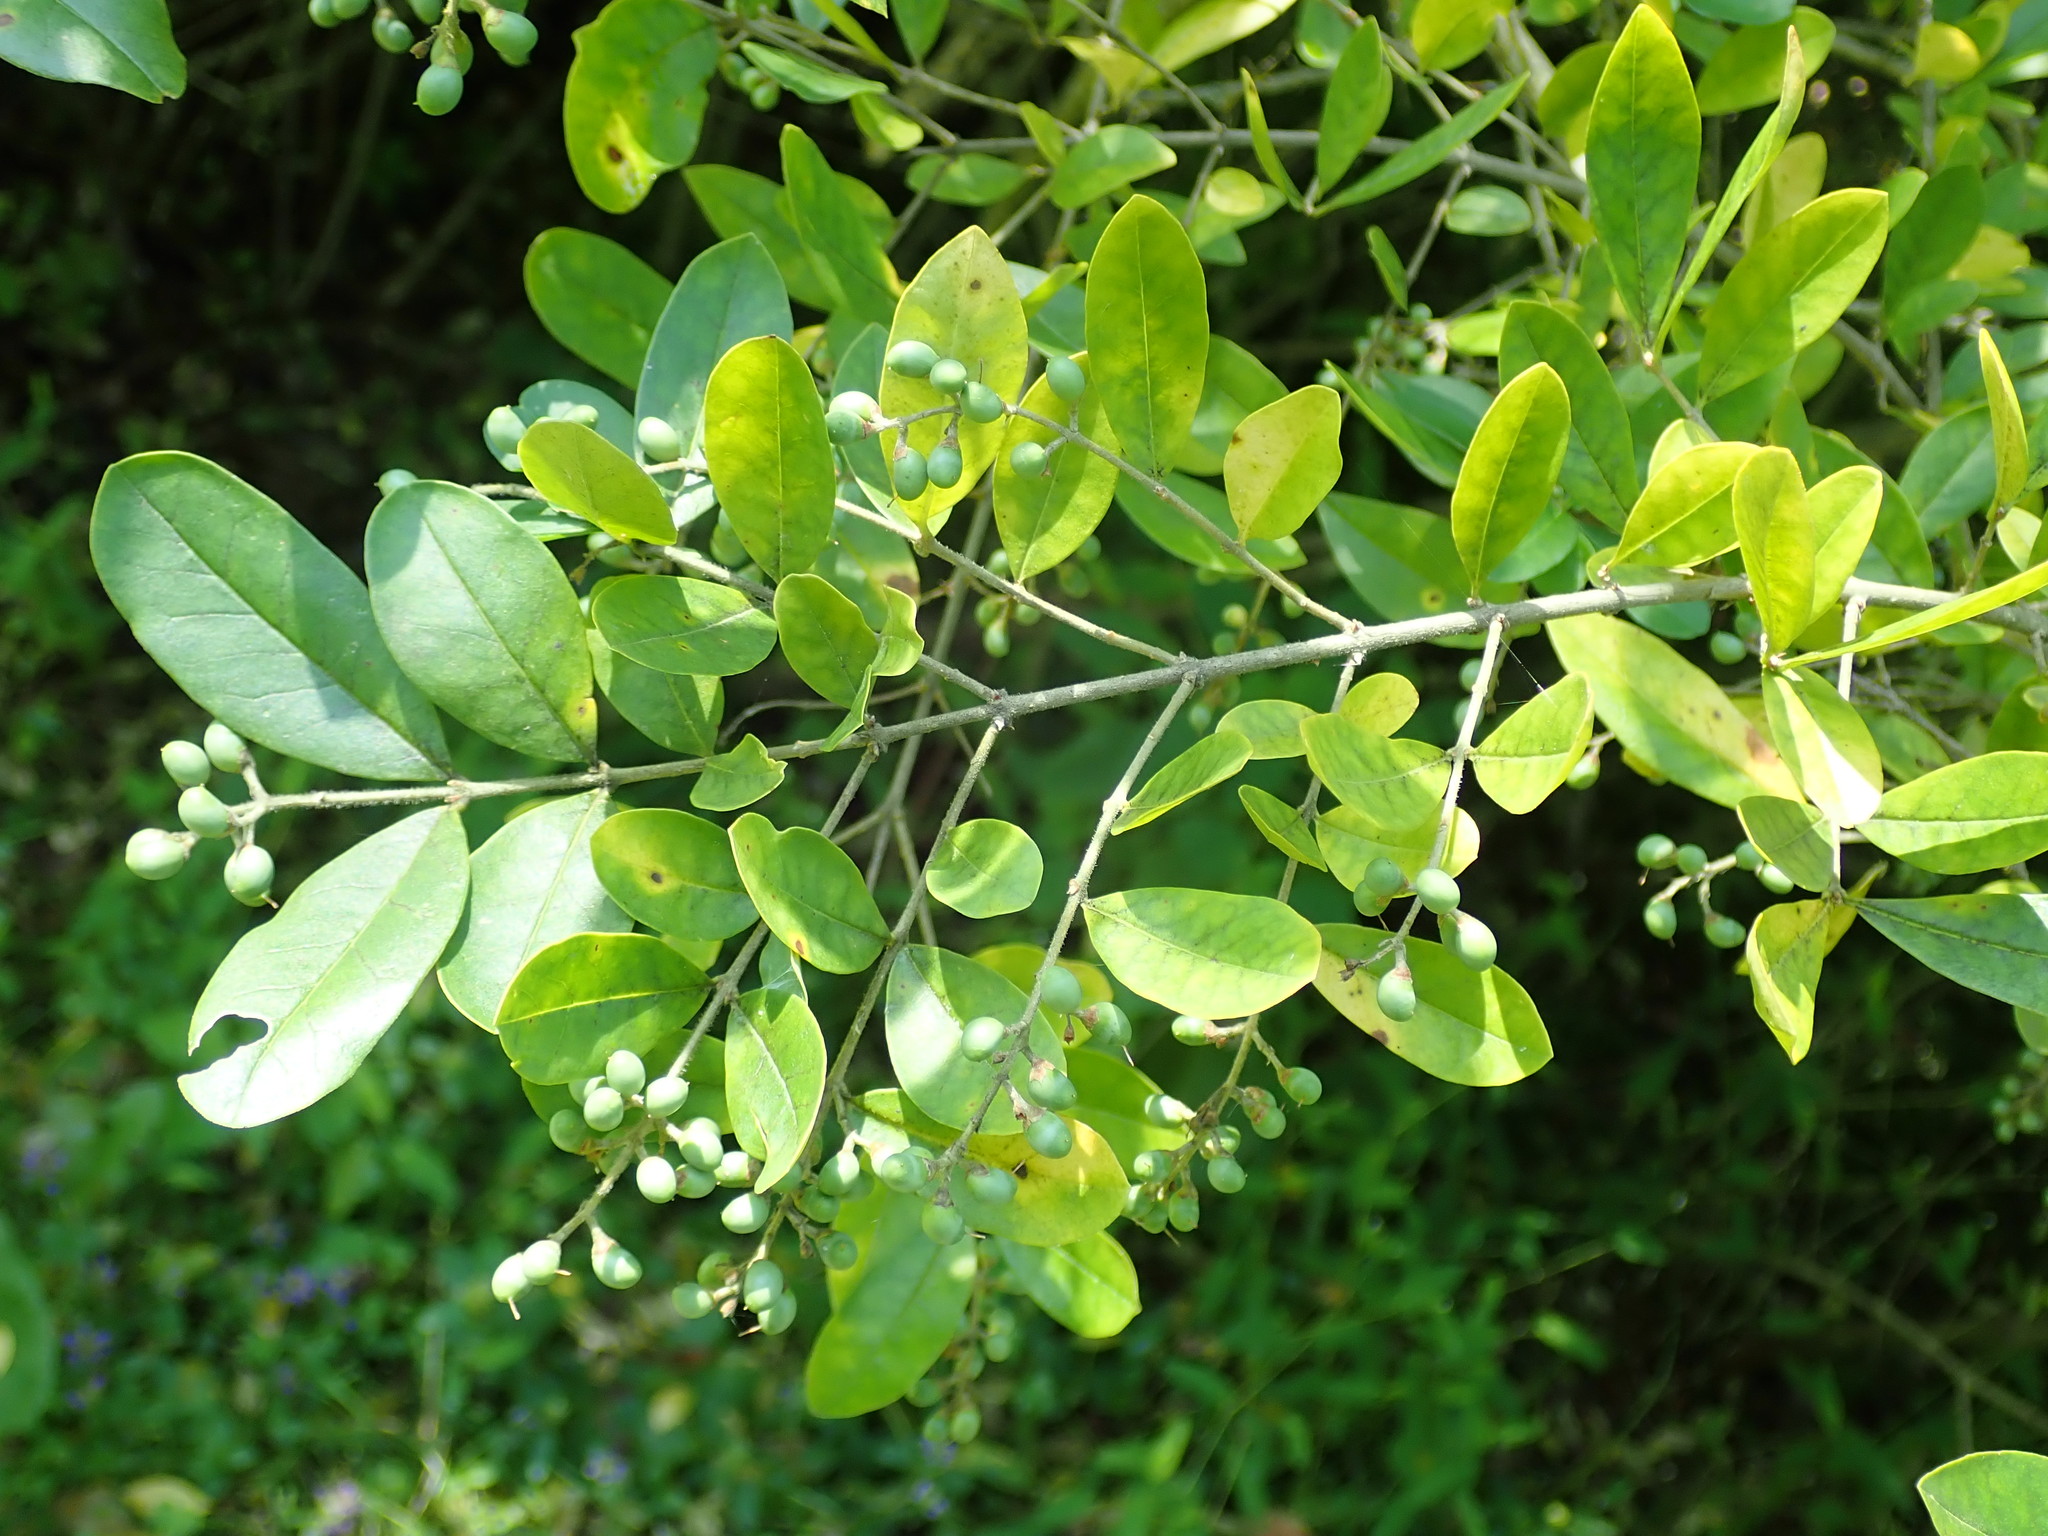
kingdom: Plantae
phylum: Tracheophyta
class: Magnoliopsida
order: Lamiales
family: Oleaceae
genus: Ligustrum
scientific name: Ligustrum obtusifolium
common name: Border privet
